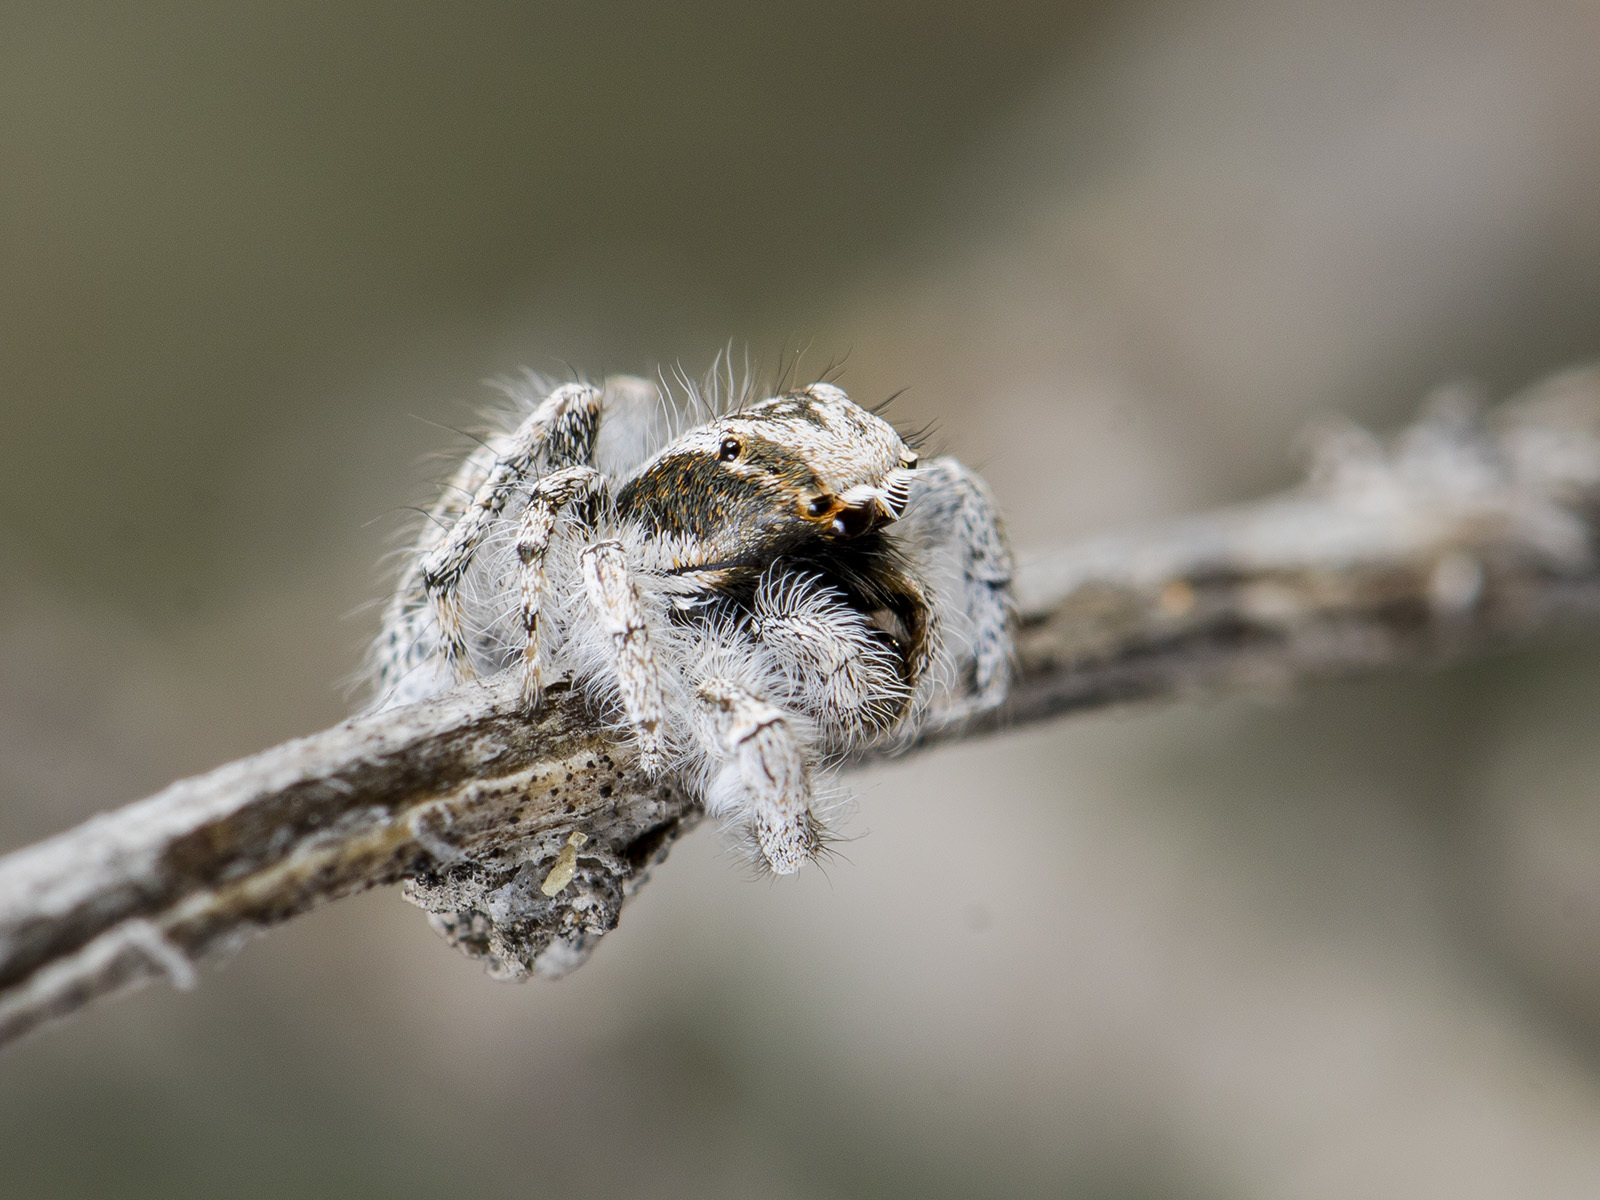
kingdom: Animalia
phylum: Arthropoda
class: Arachnida
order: Araneae
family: Salticidae
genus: Marusyllus
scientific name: Marusyllus aralicus
